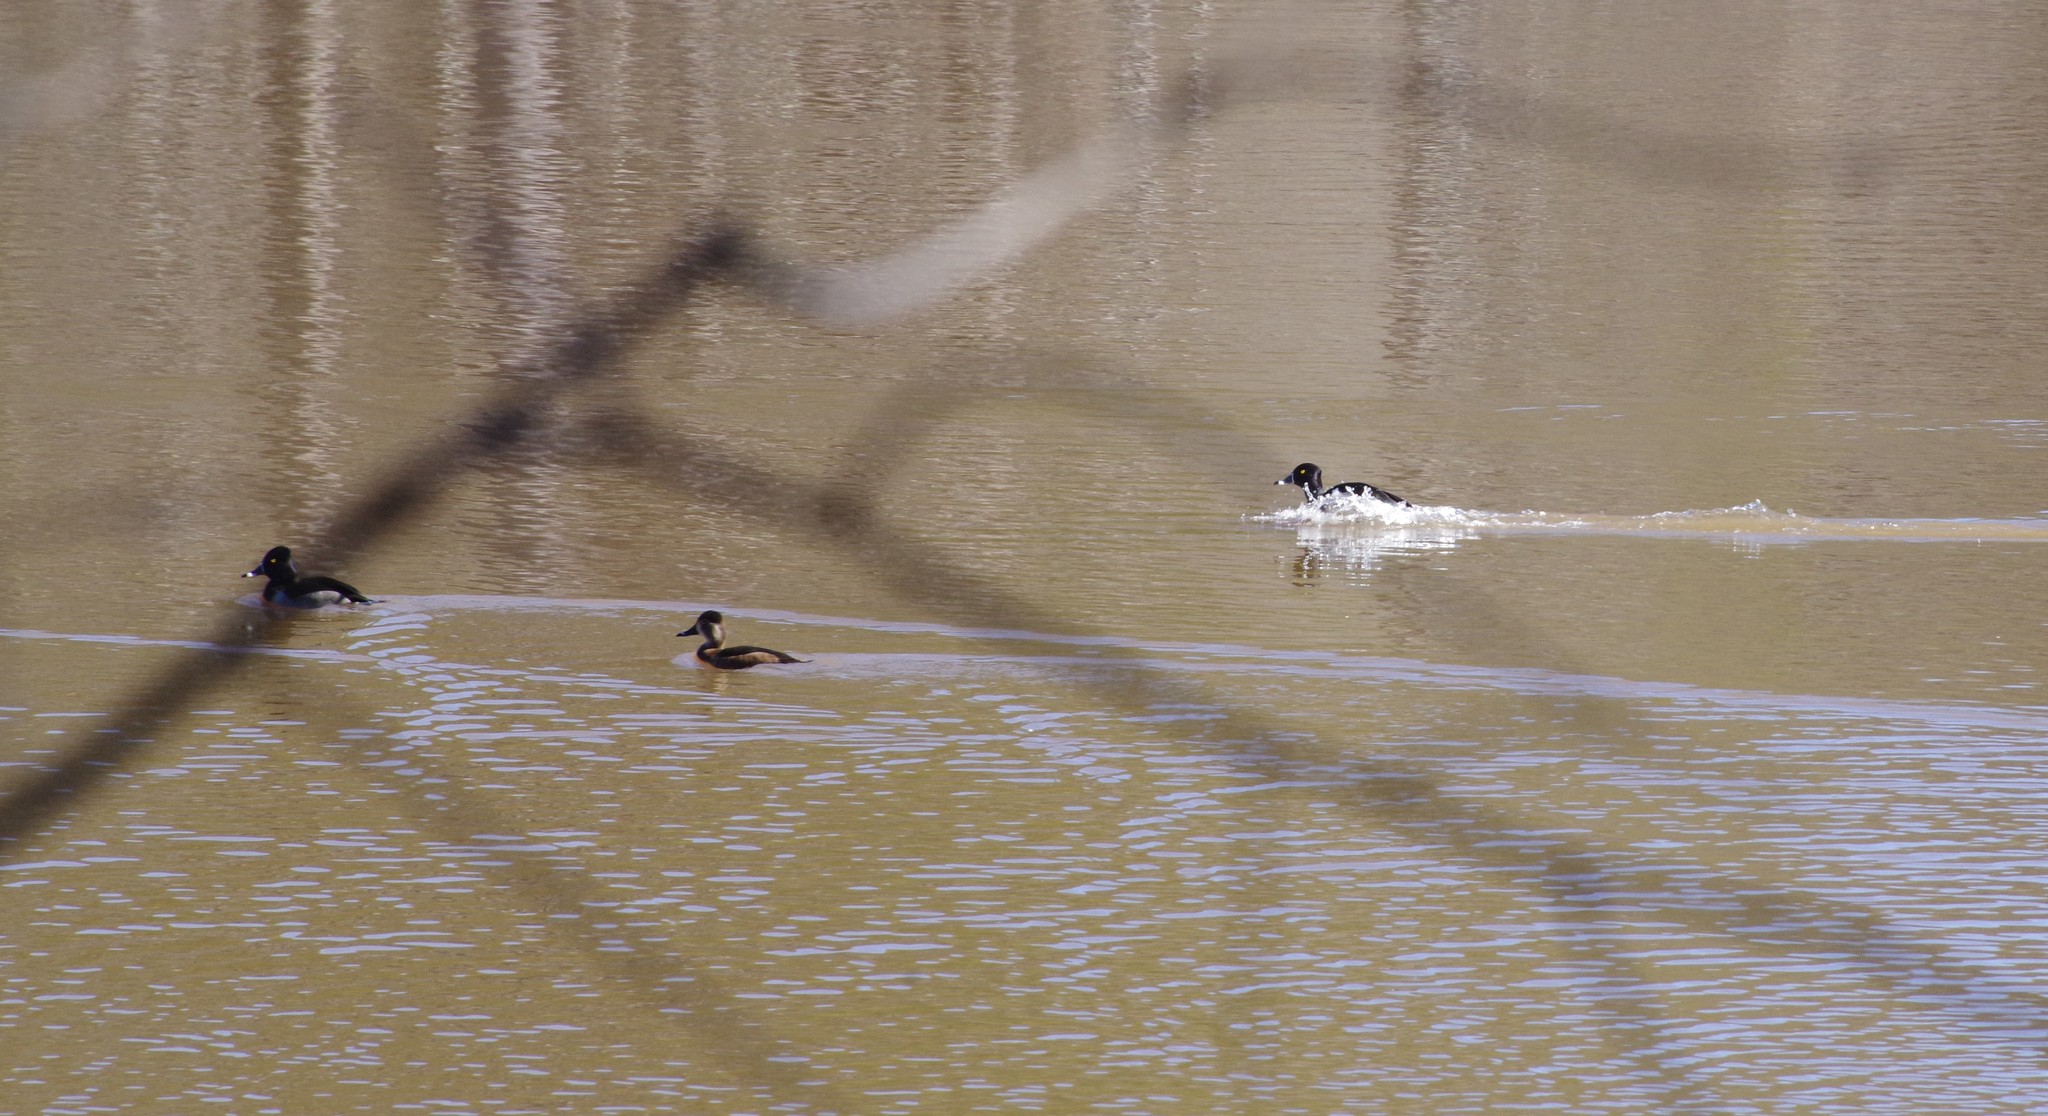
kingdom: Animalia
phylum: Chordata
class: Aves
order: Anseriformes
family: Anatidae
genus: Aythya
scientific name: Aythya collaris
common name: Ring-necked duck
